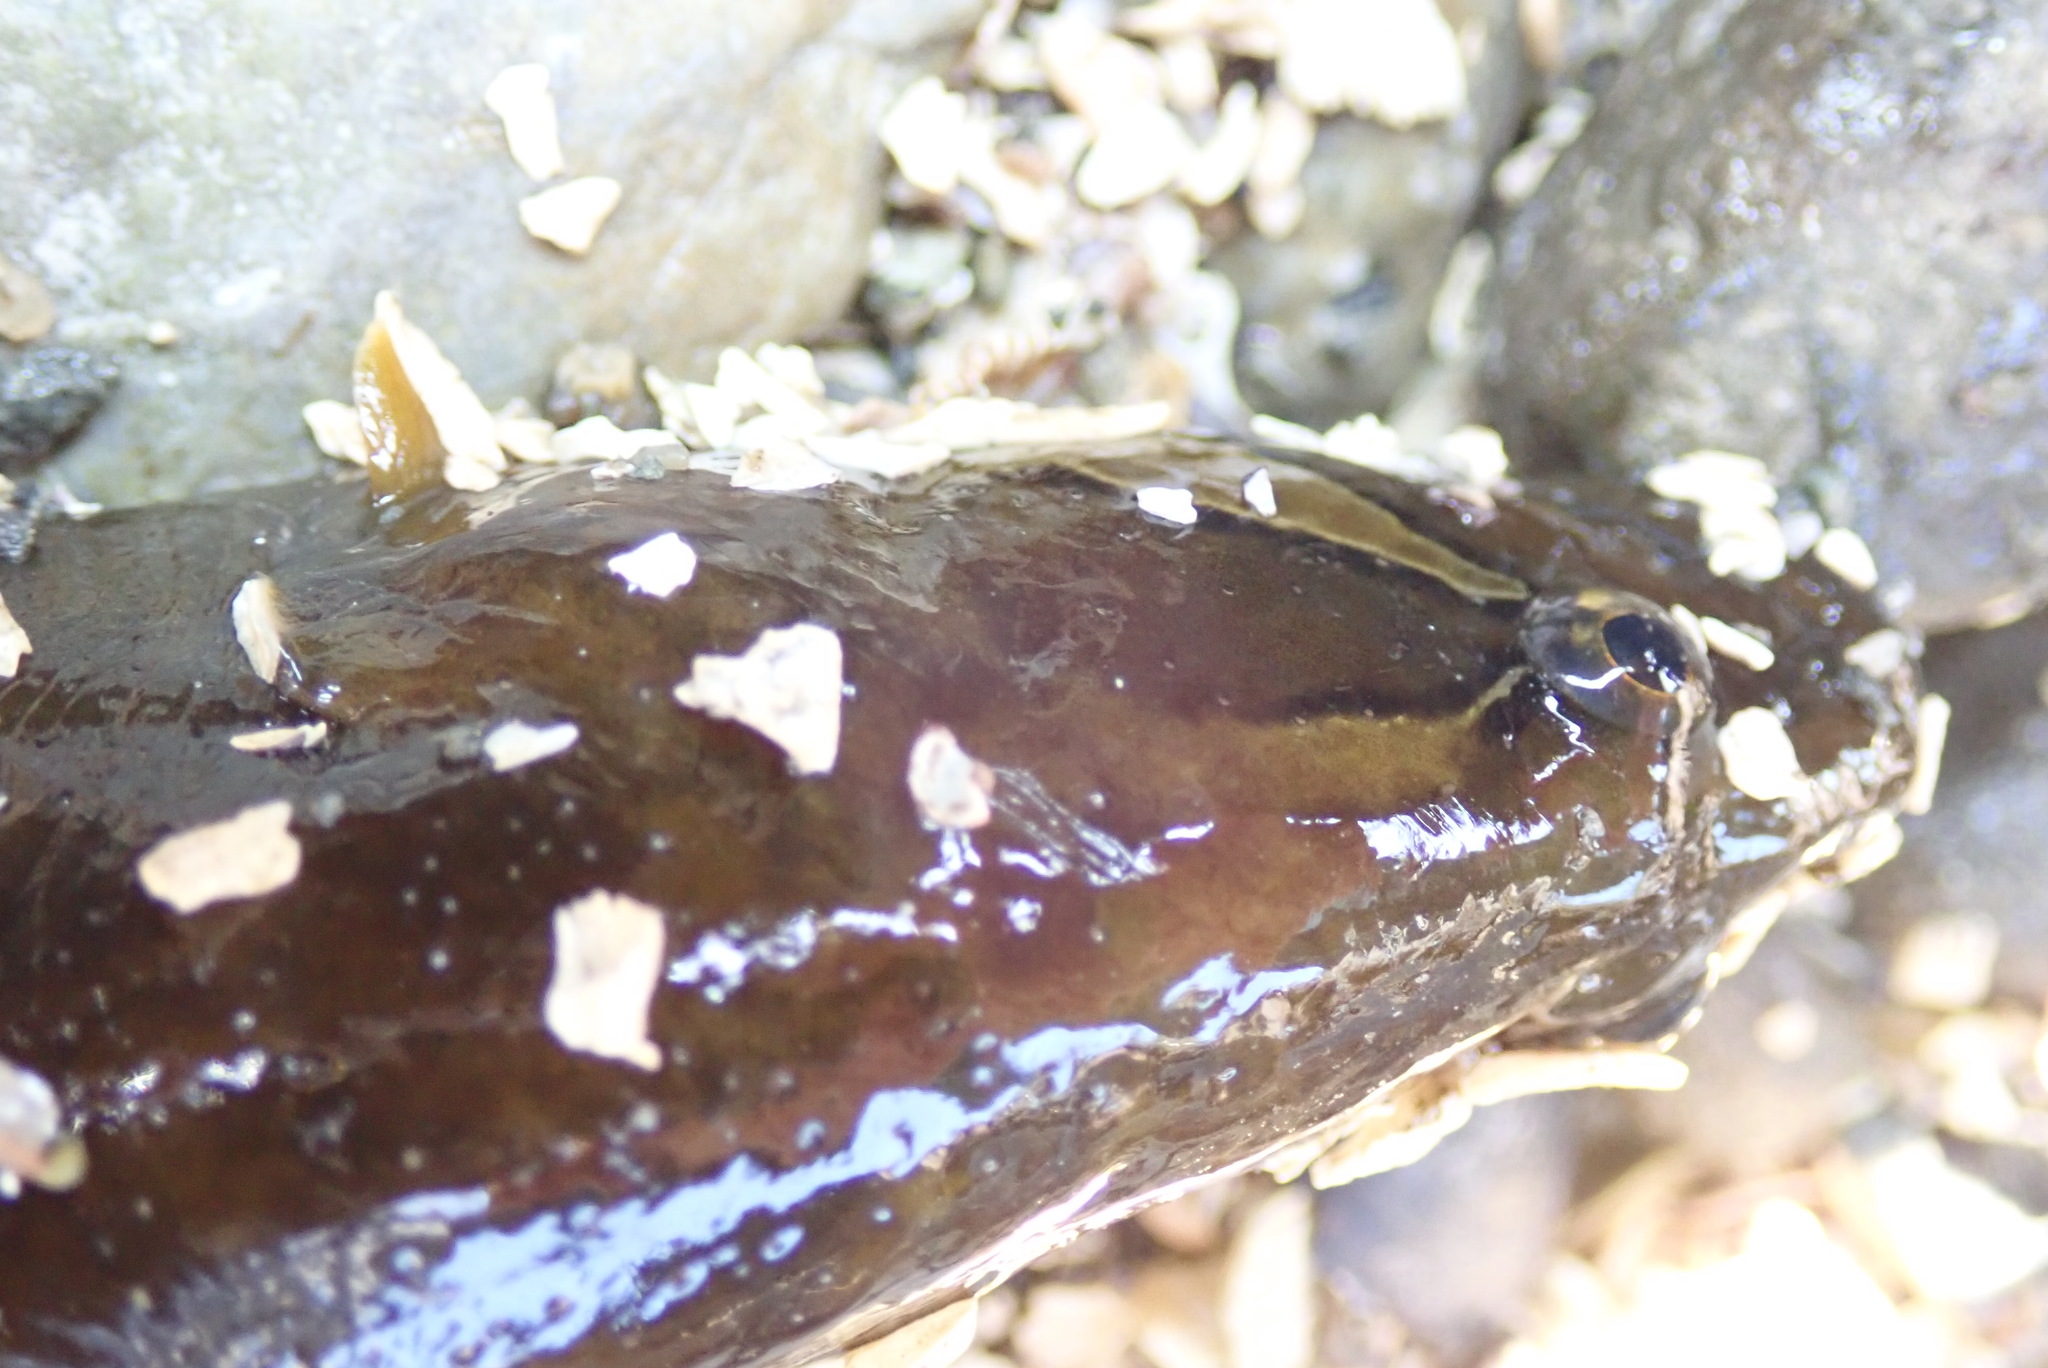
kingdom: Animalia
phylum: Chordata
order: Perciformes
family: Stichaeidae
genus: Xiphister
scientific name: Xiphister mucosus
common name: Rock prickleback
